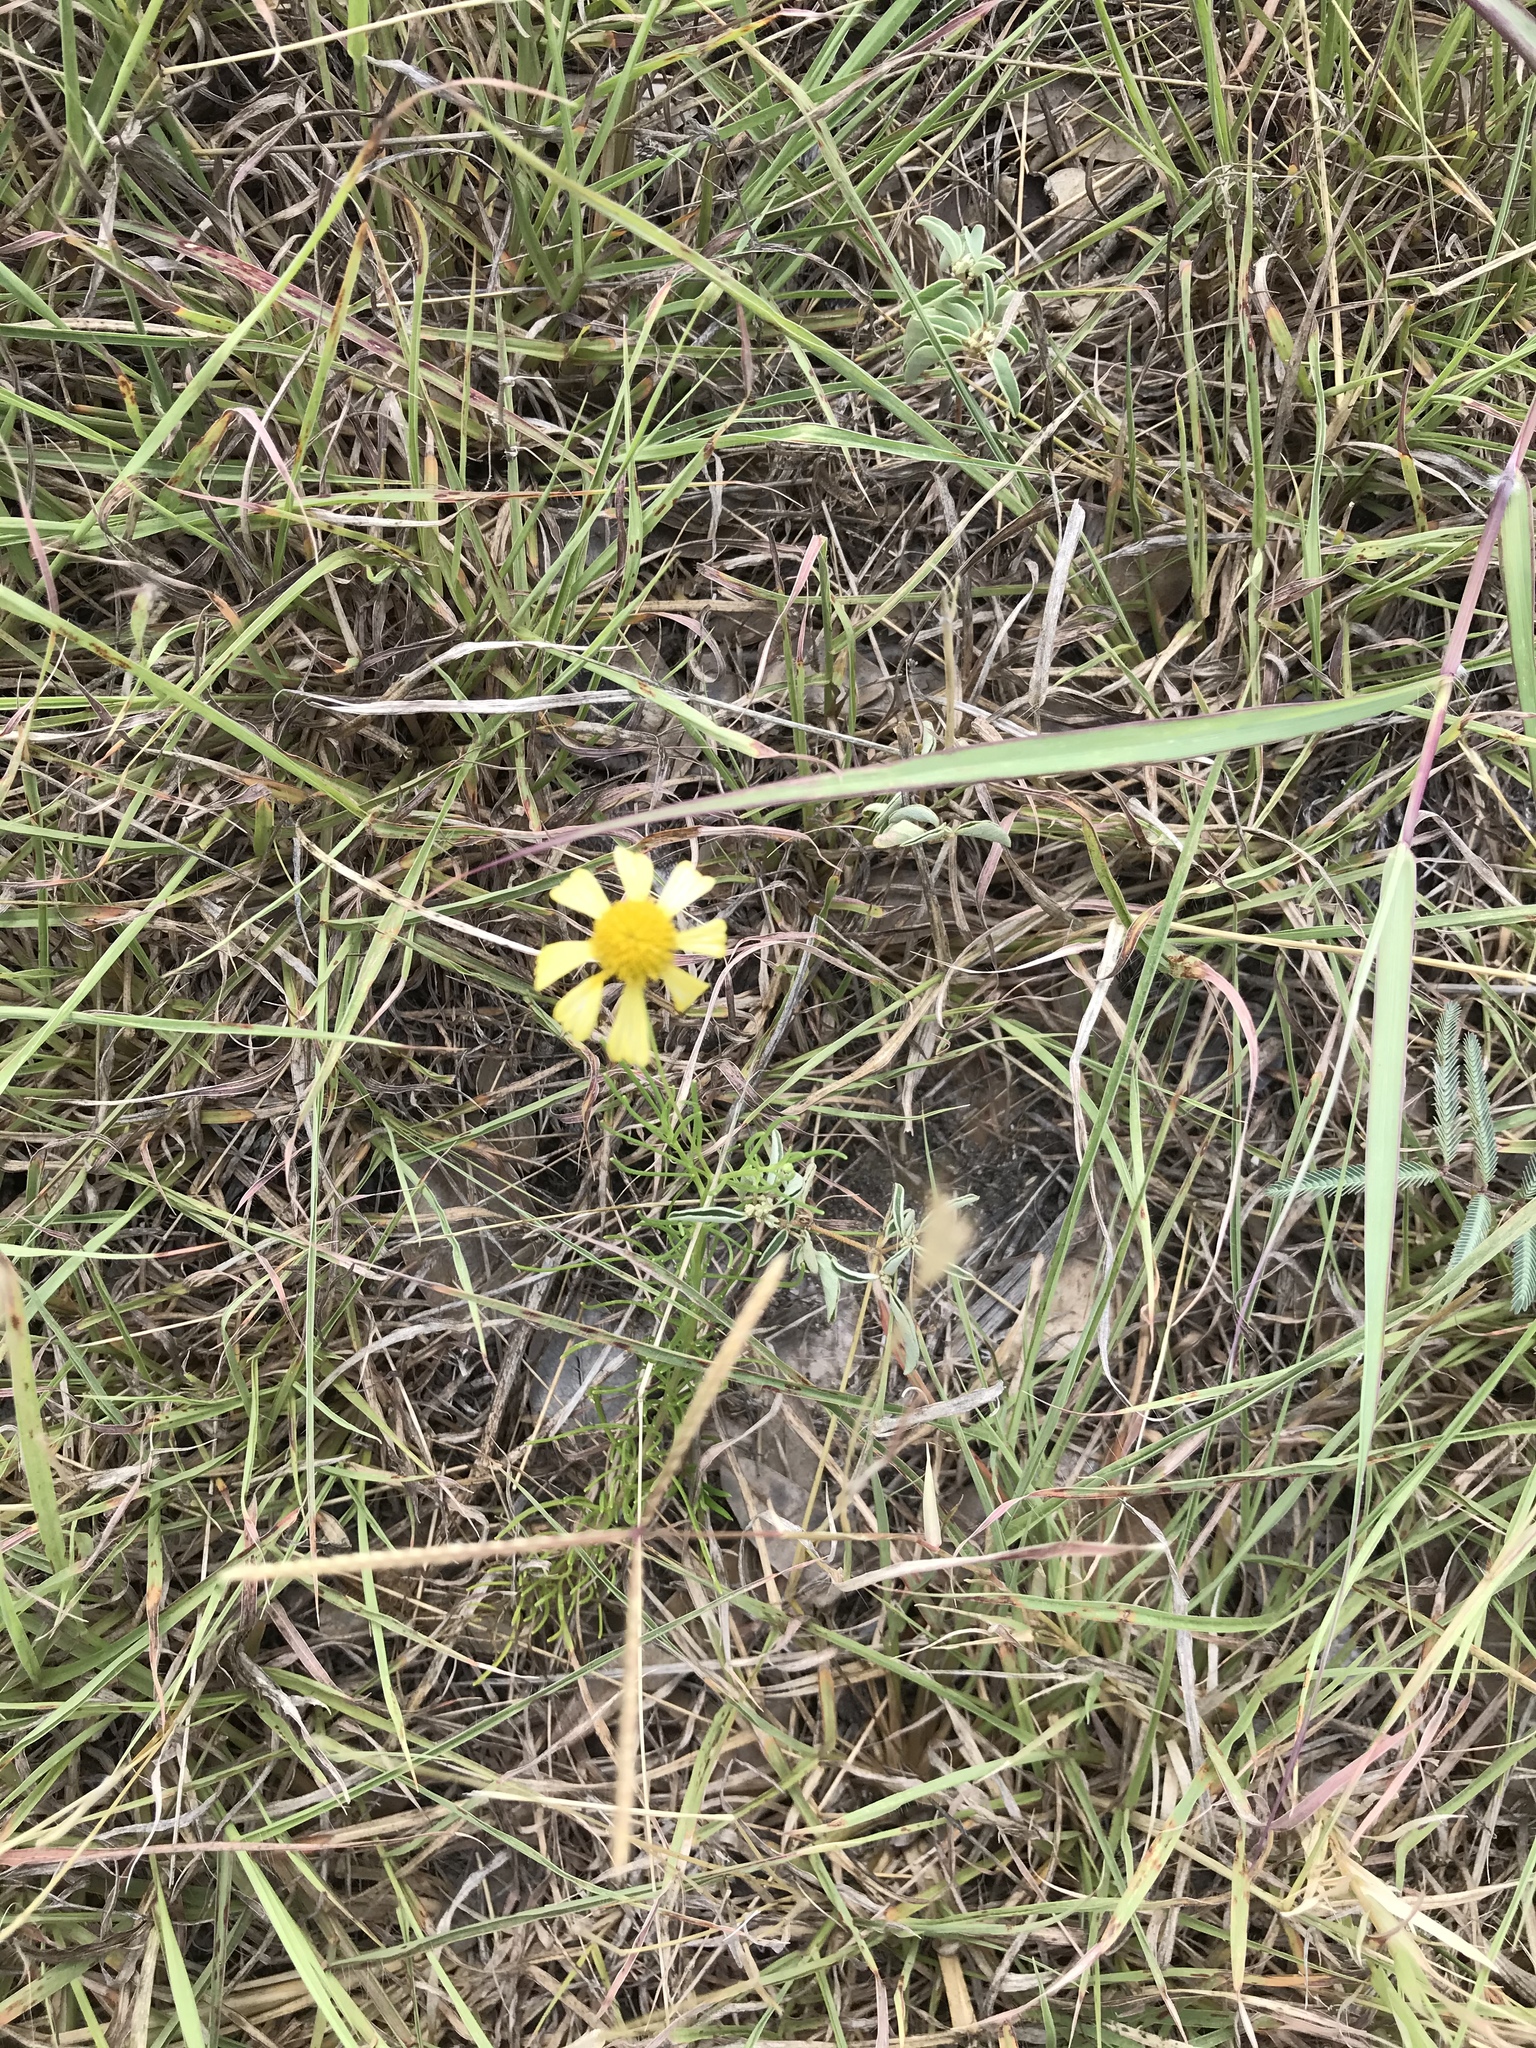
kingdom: Plantae
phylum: Tracheophyta
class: Magnoliopsida
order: Asterales
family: Asteraceae
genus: Helenium
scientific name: Helenium amarum
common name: Bitter sneezeweed
